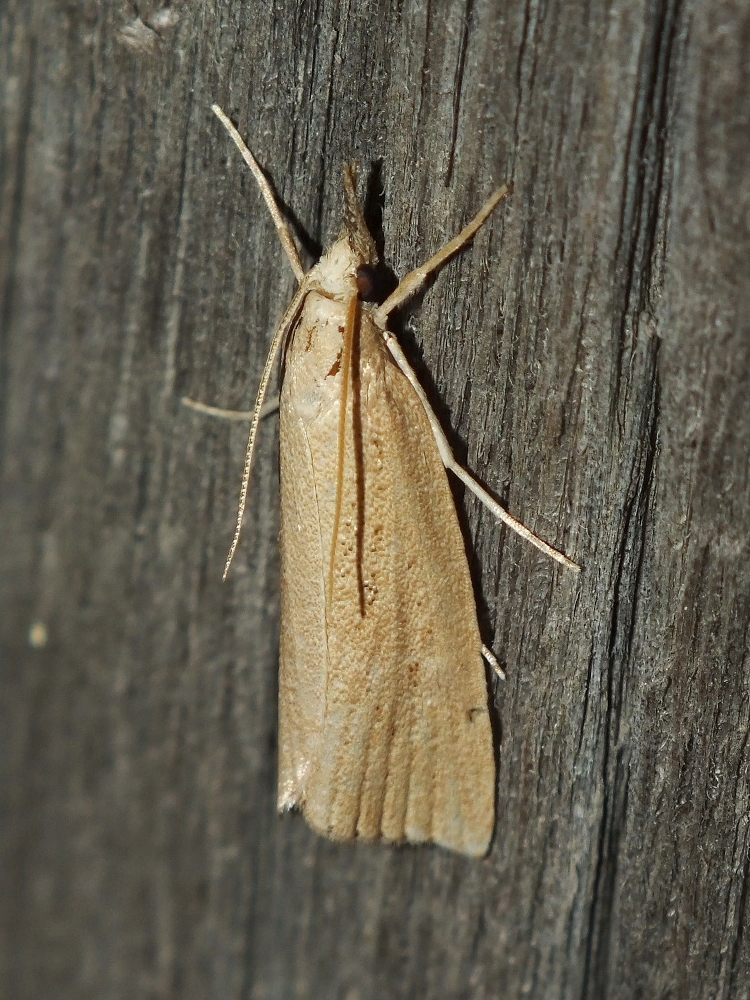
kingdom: Animalia
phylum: Arthropoda
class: Insecta
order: Lepidoptera
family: Crambidae
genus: Chilo
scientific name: Chilo luteellus
